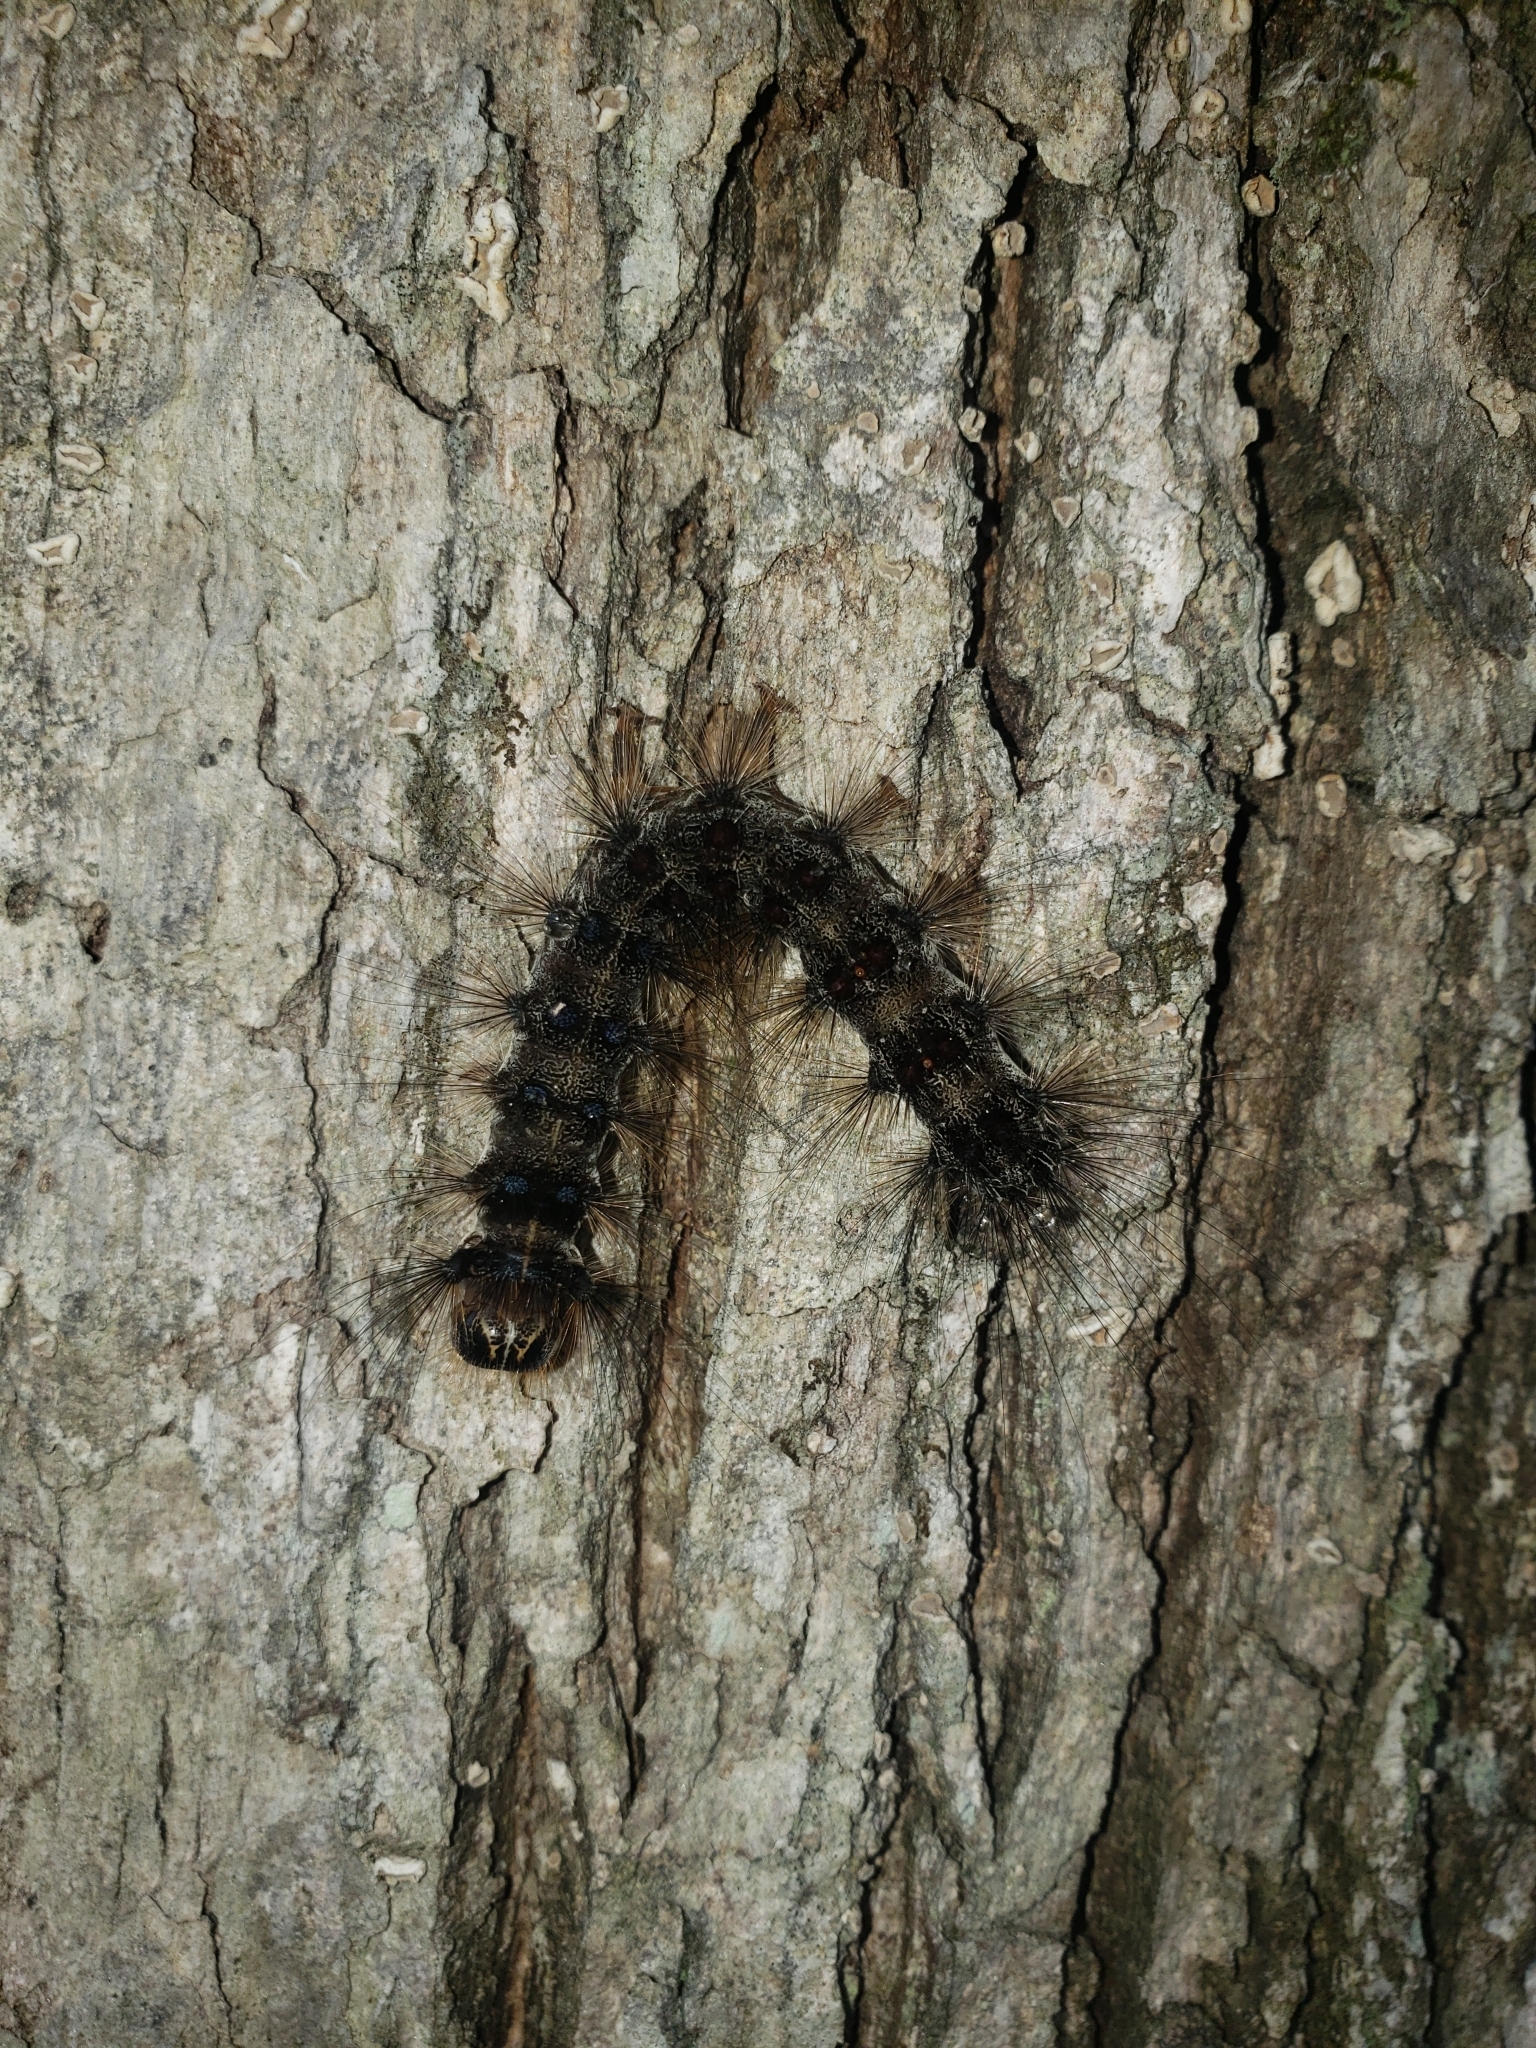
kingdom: Animalia
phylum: Arthropoda
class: Insecta
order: Lepidoptera
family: Erebidae
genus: Lymantria
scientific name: Lymantria dispar
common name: Gypsy moth
